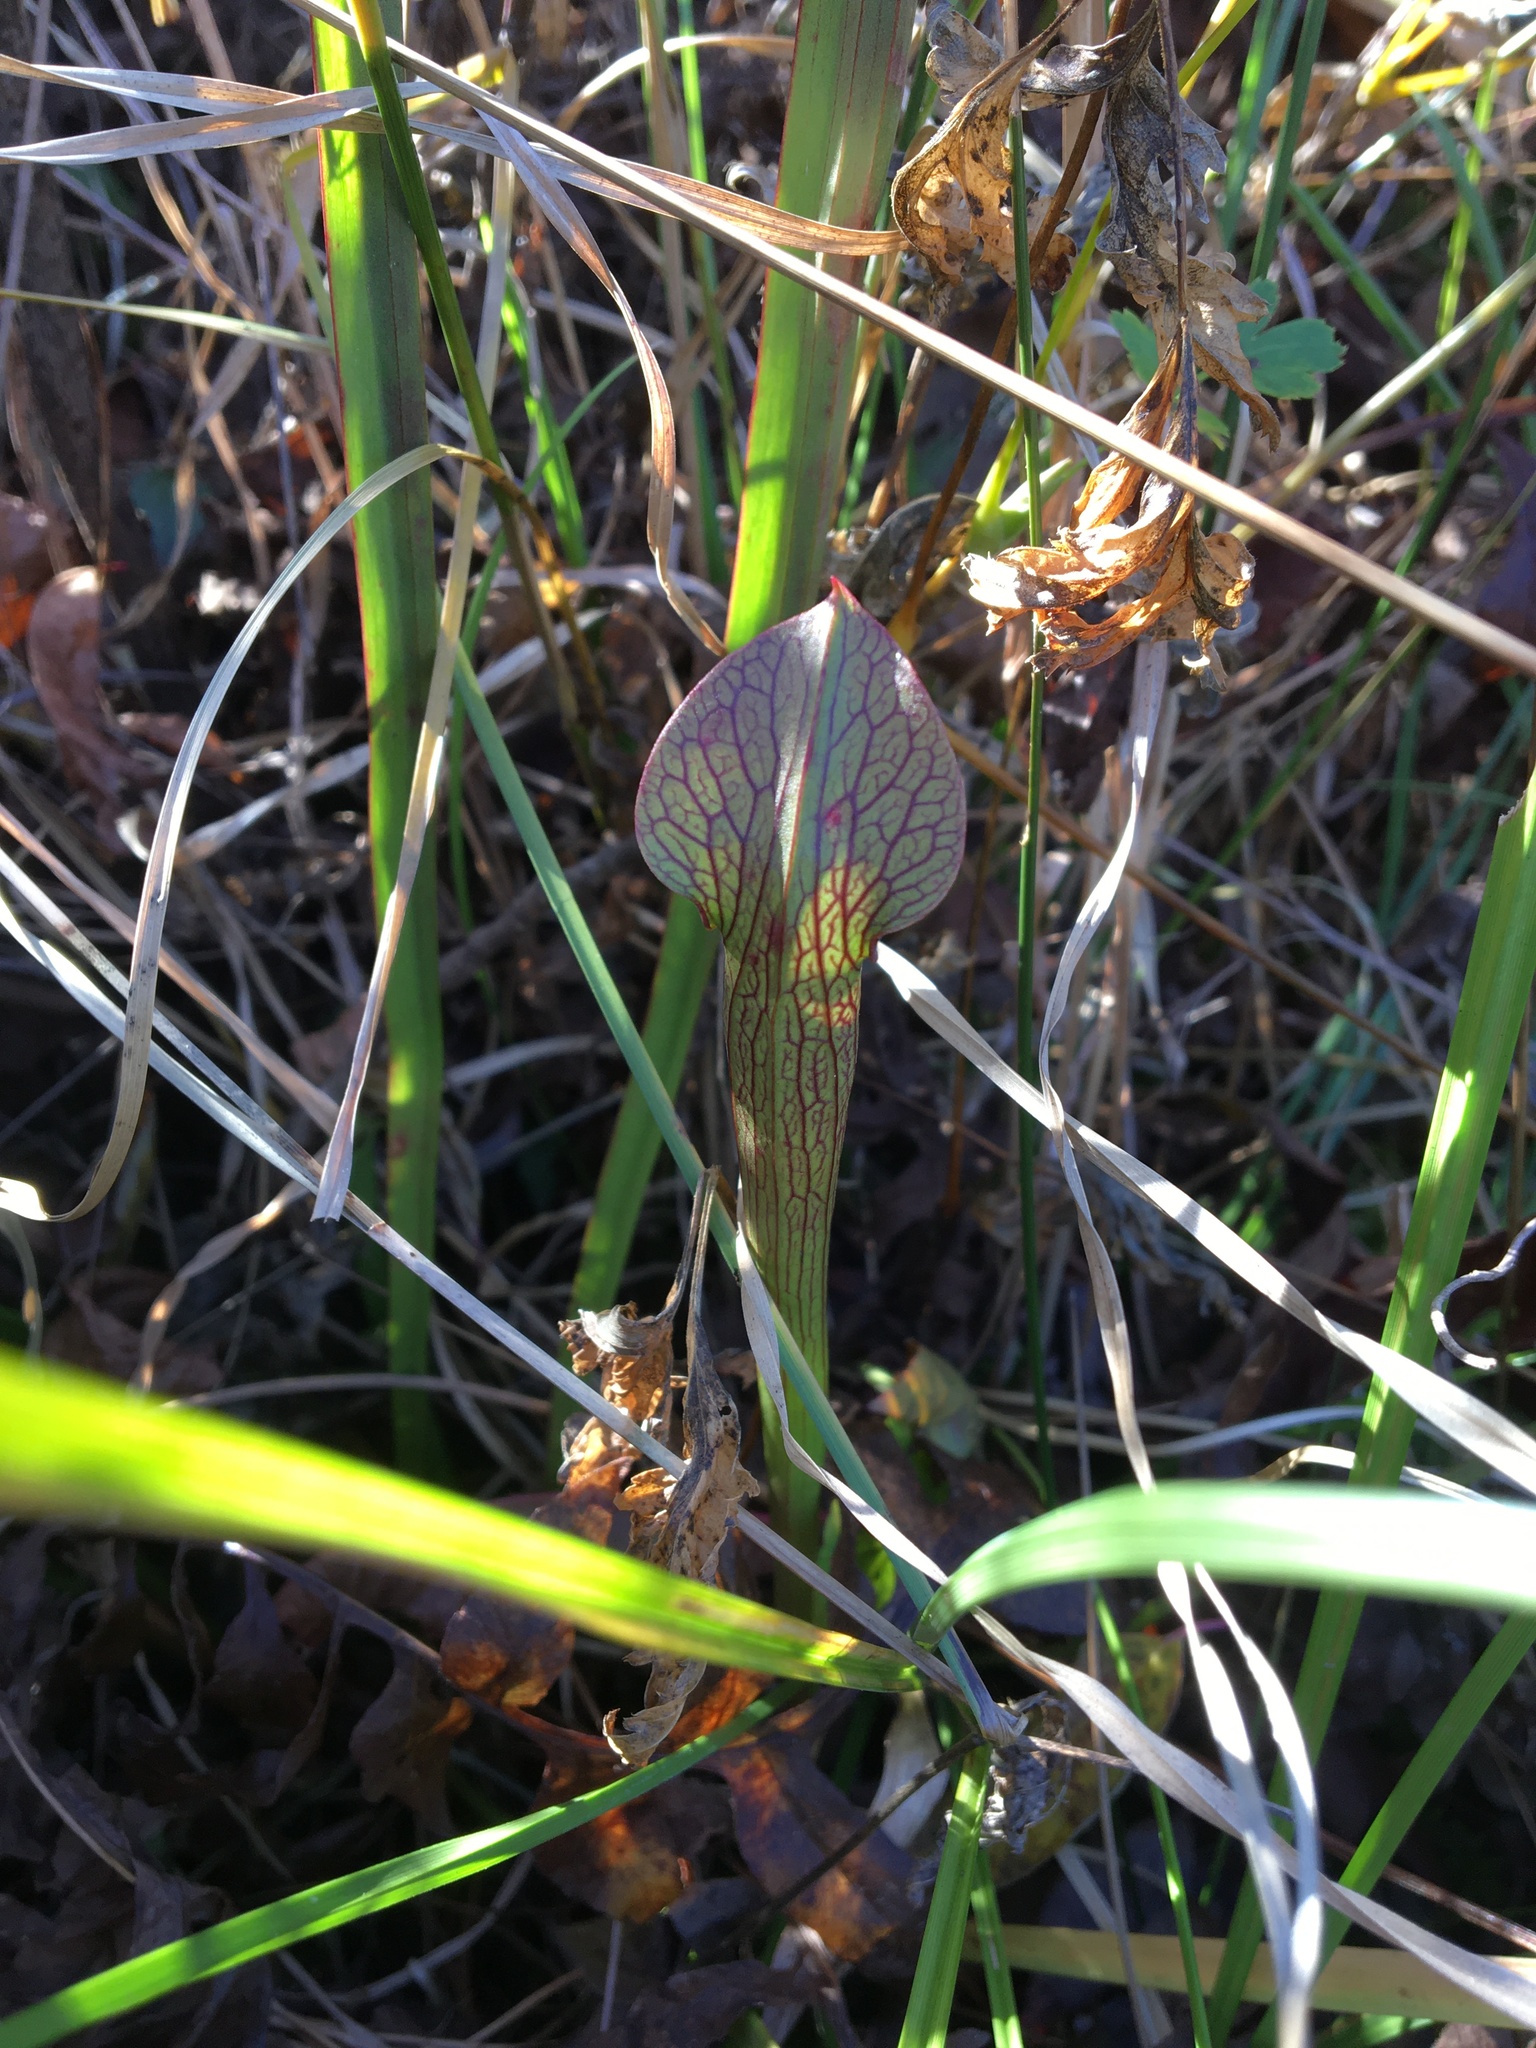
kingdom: Plantae
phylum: Tracheophyta
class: Magnoliopsida
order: Ericales
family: Sarraceniaceae
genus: Sarracenia
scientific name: Sarracenia jonesii
